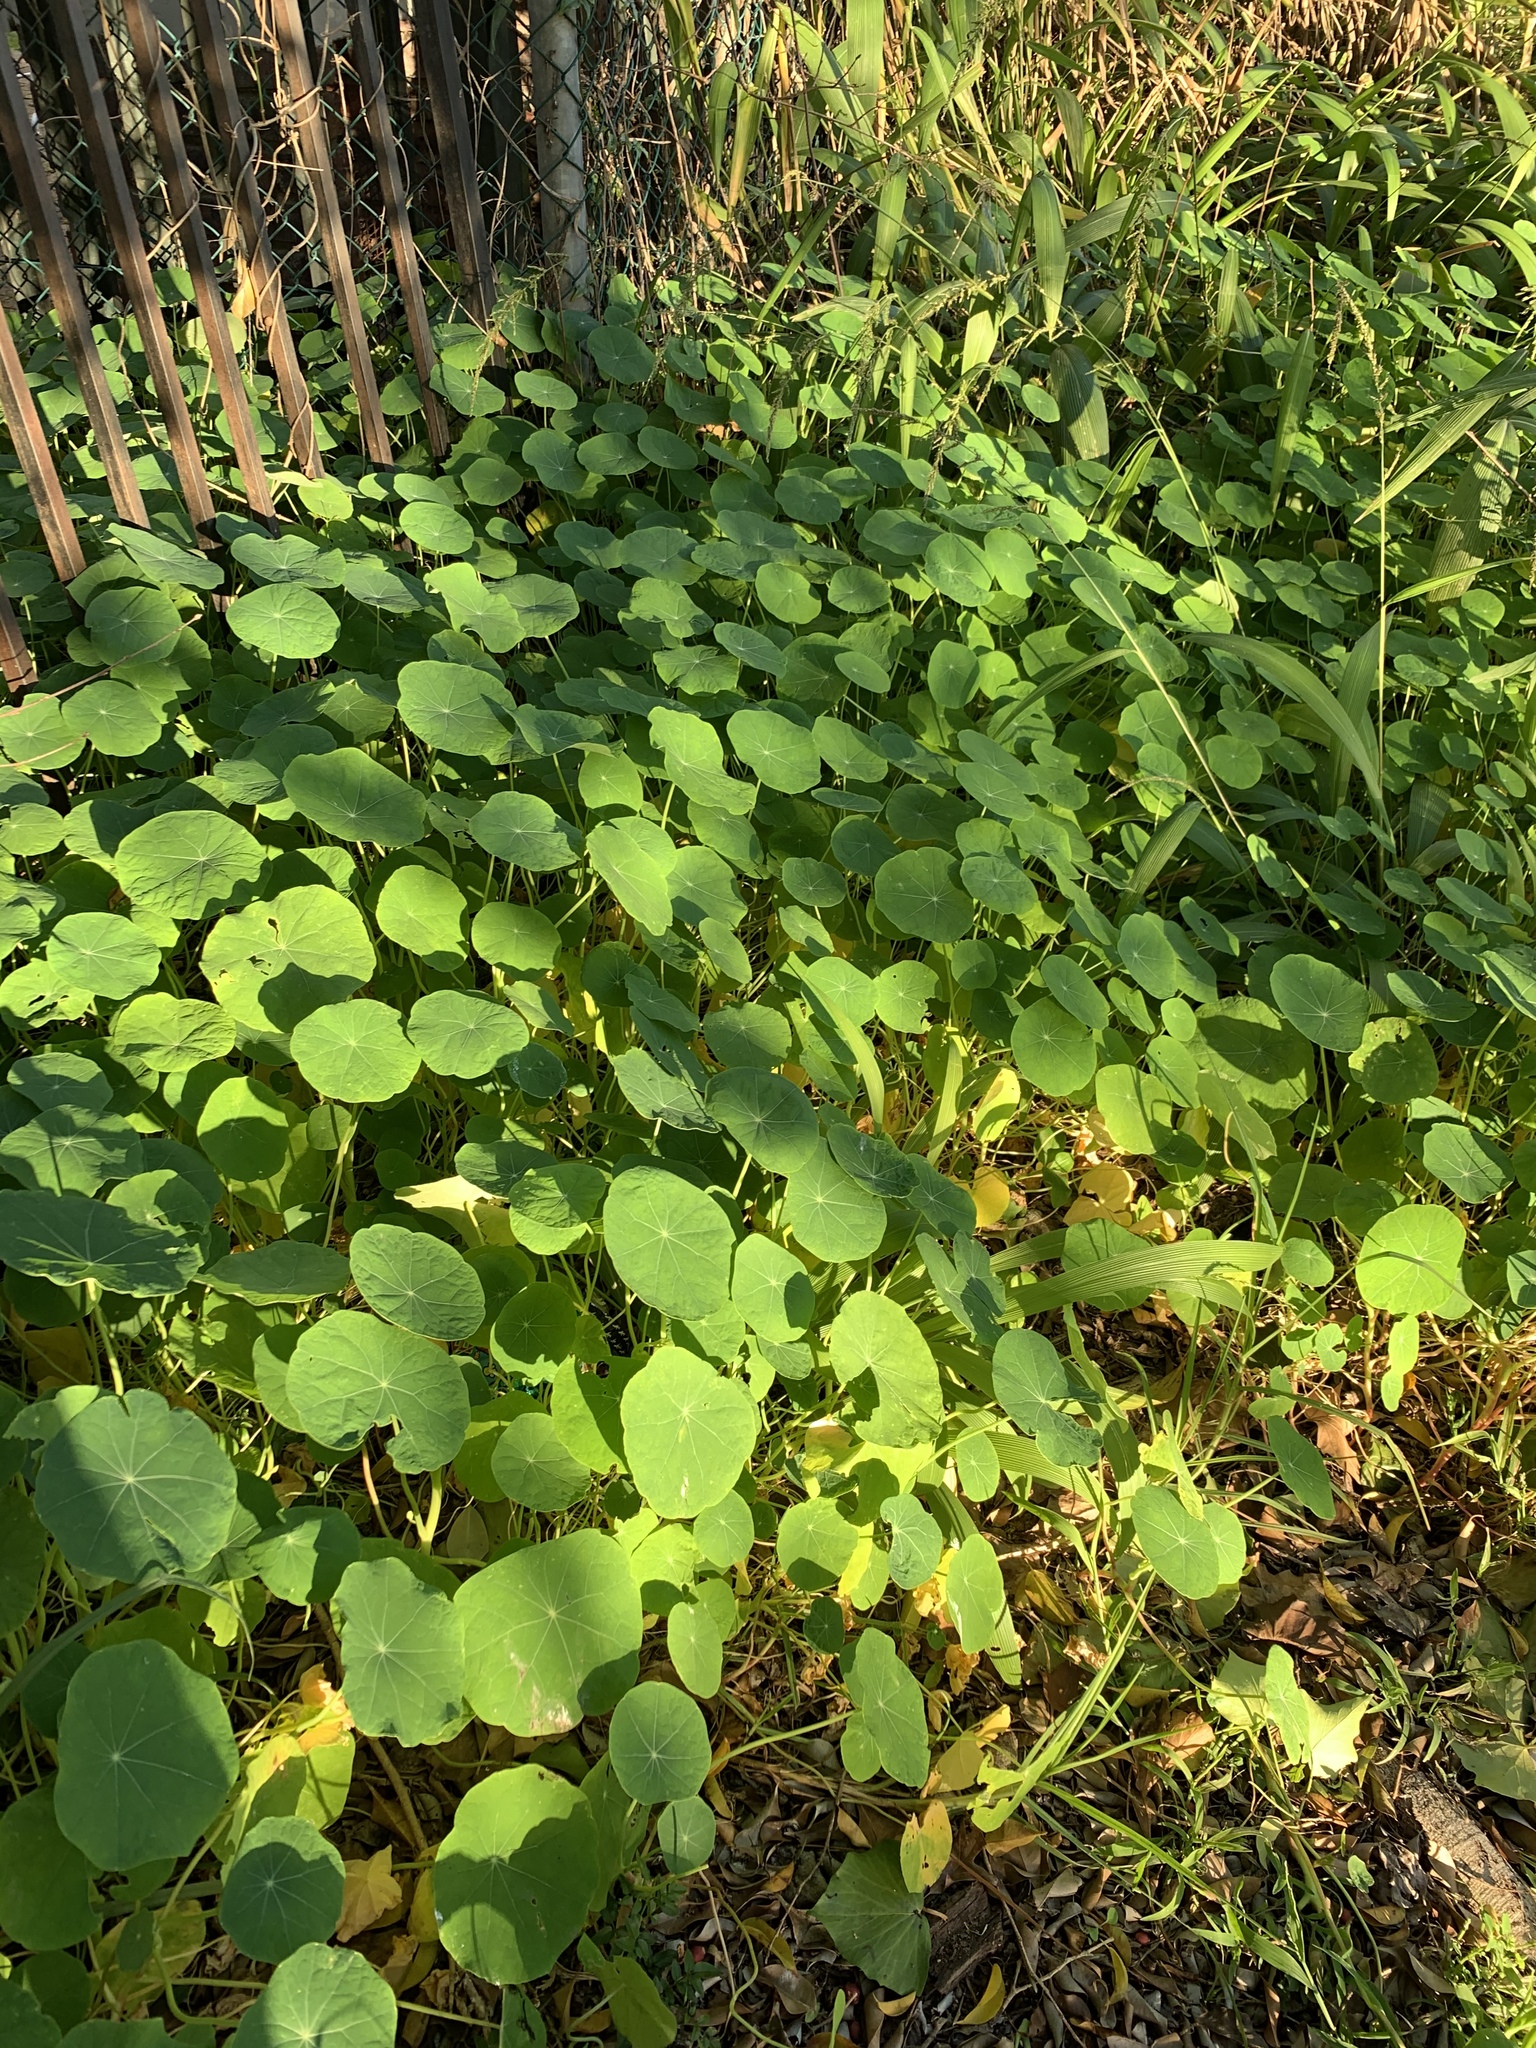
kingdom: Plantae
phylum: Tracheophyta
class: Magnoliopsida
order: Brassicales
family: Tropaeolaceae
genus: Tropaeolum
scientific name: Tropaeolum majus
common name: Nasturtium
